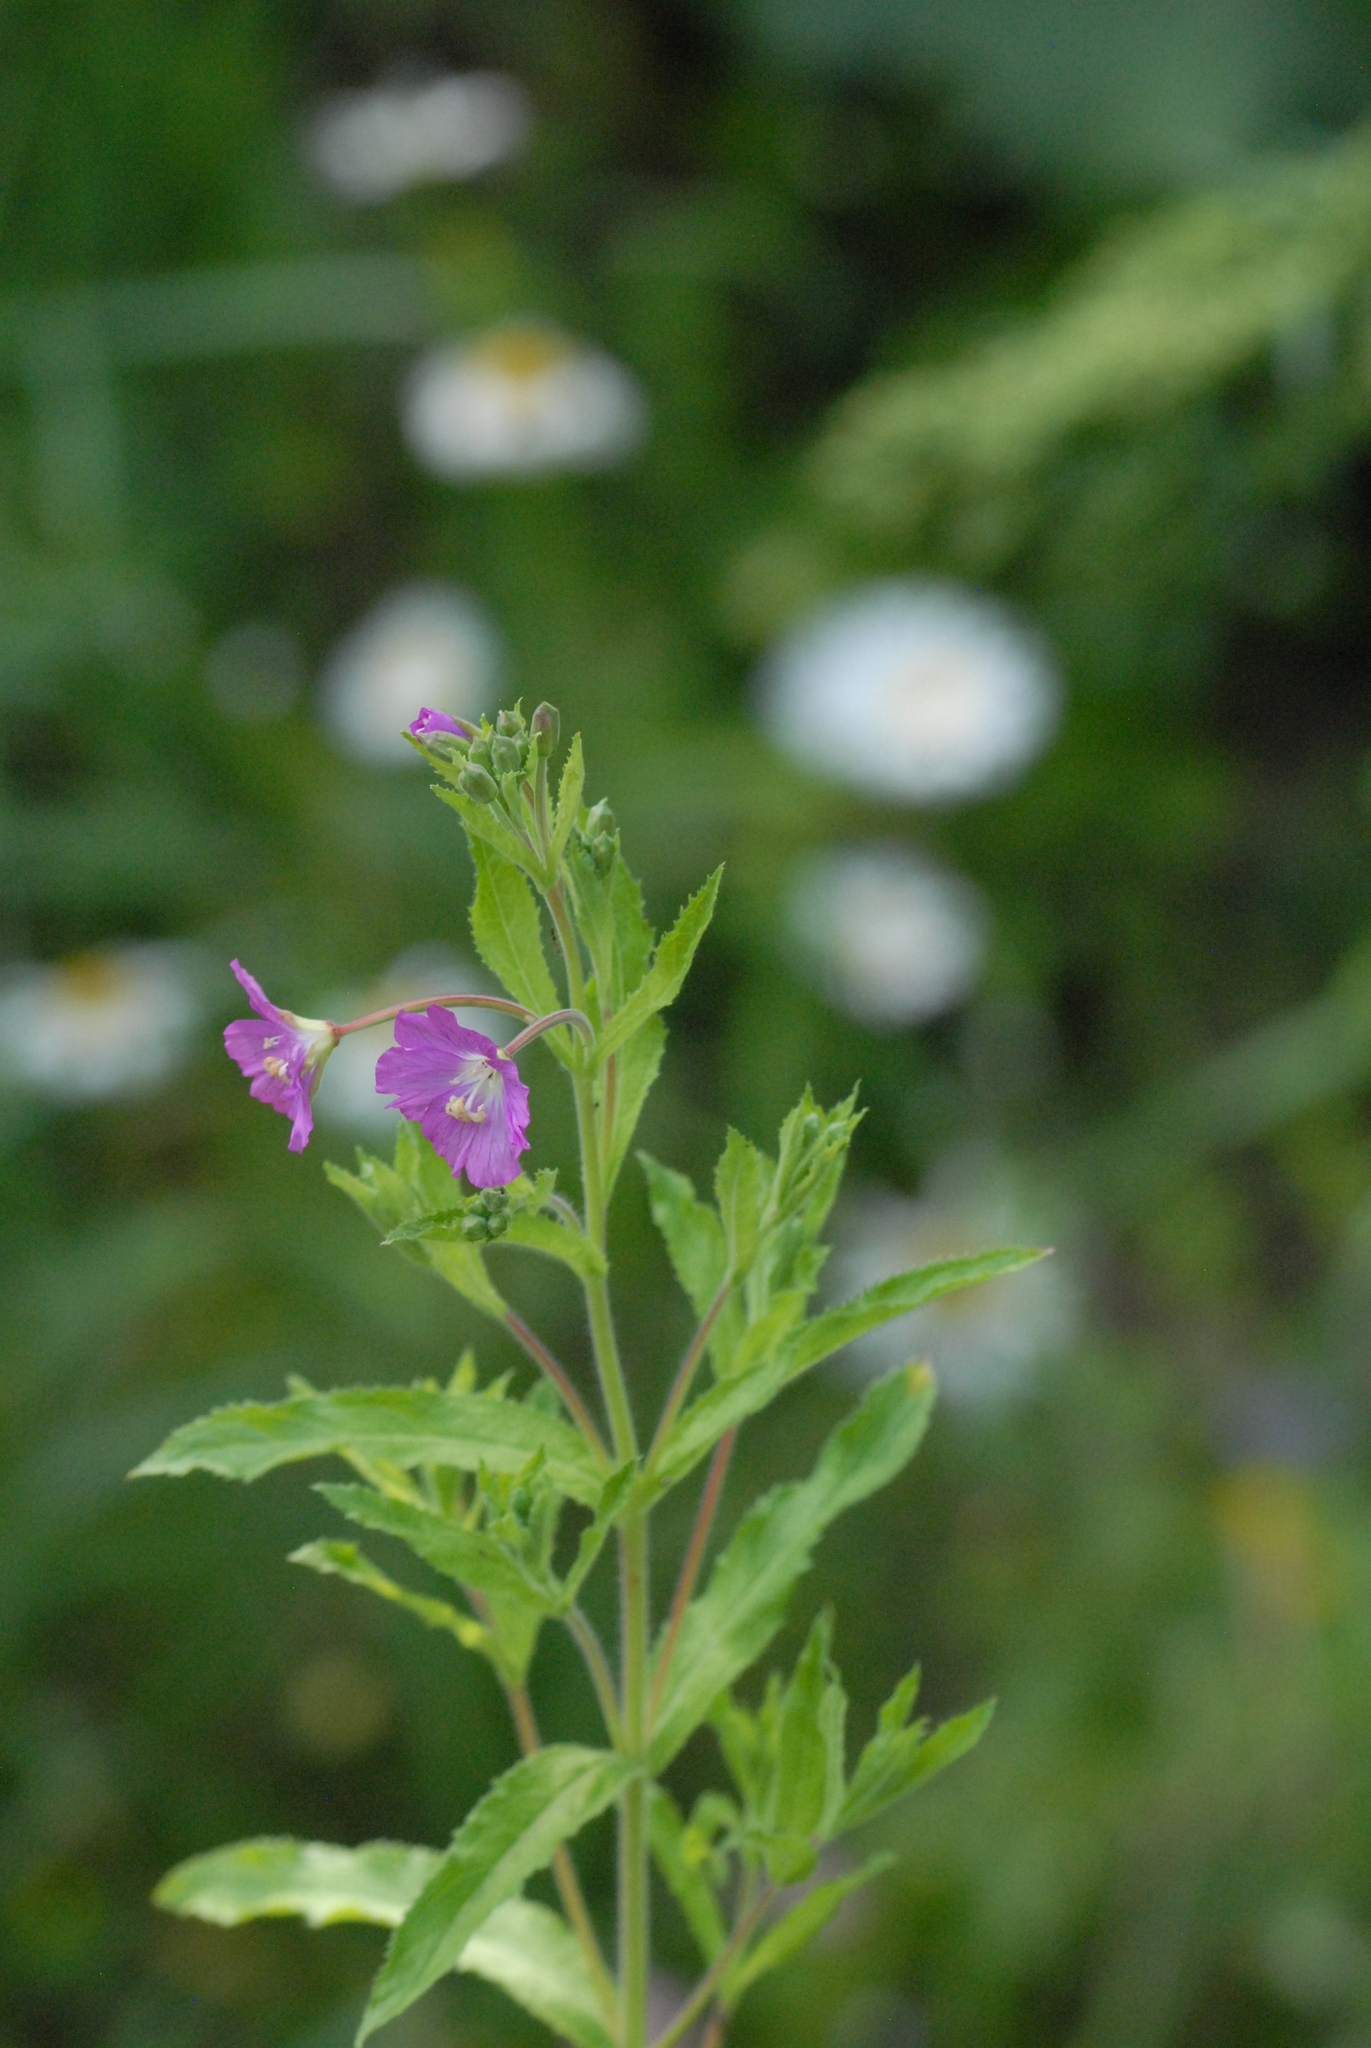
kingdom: Plantae
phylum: Tracheophyta
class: Magnoliopsida
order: Myrtales
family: Onagraceae
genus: Epilobium
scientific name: Epilobium hirsutum
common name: Great willowherb
